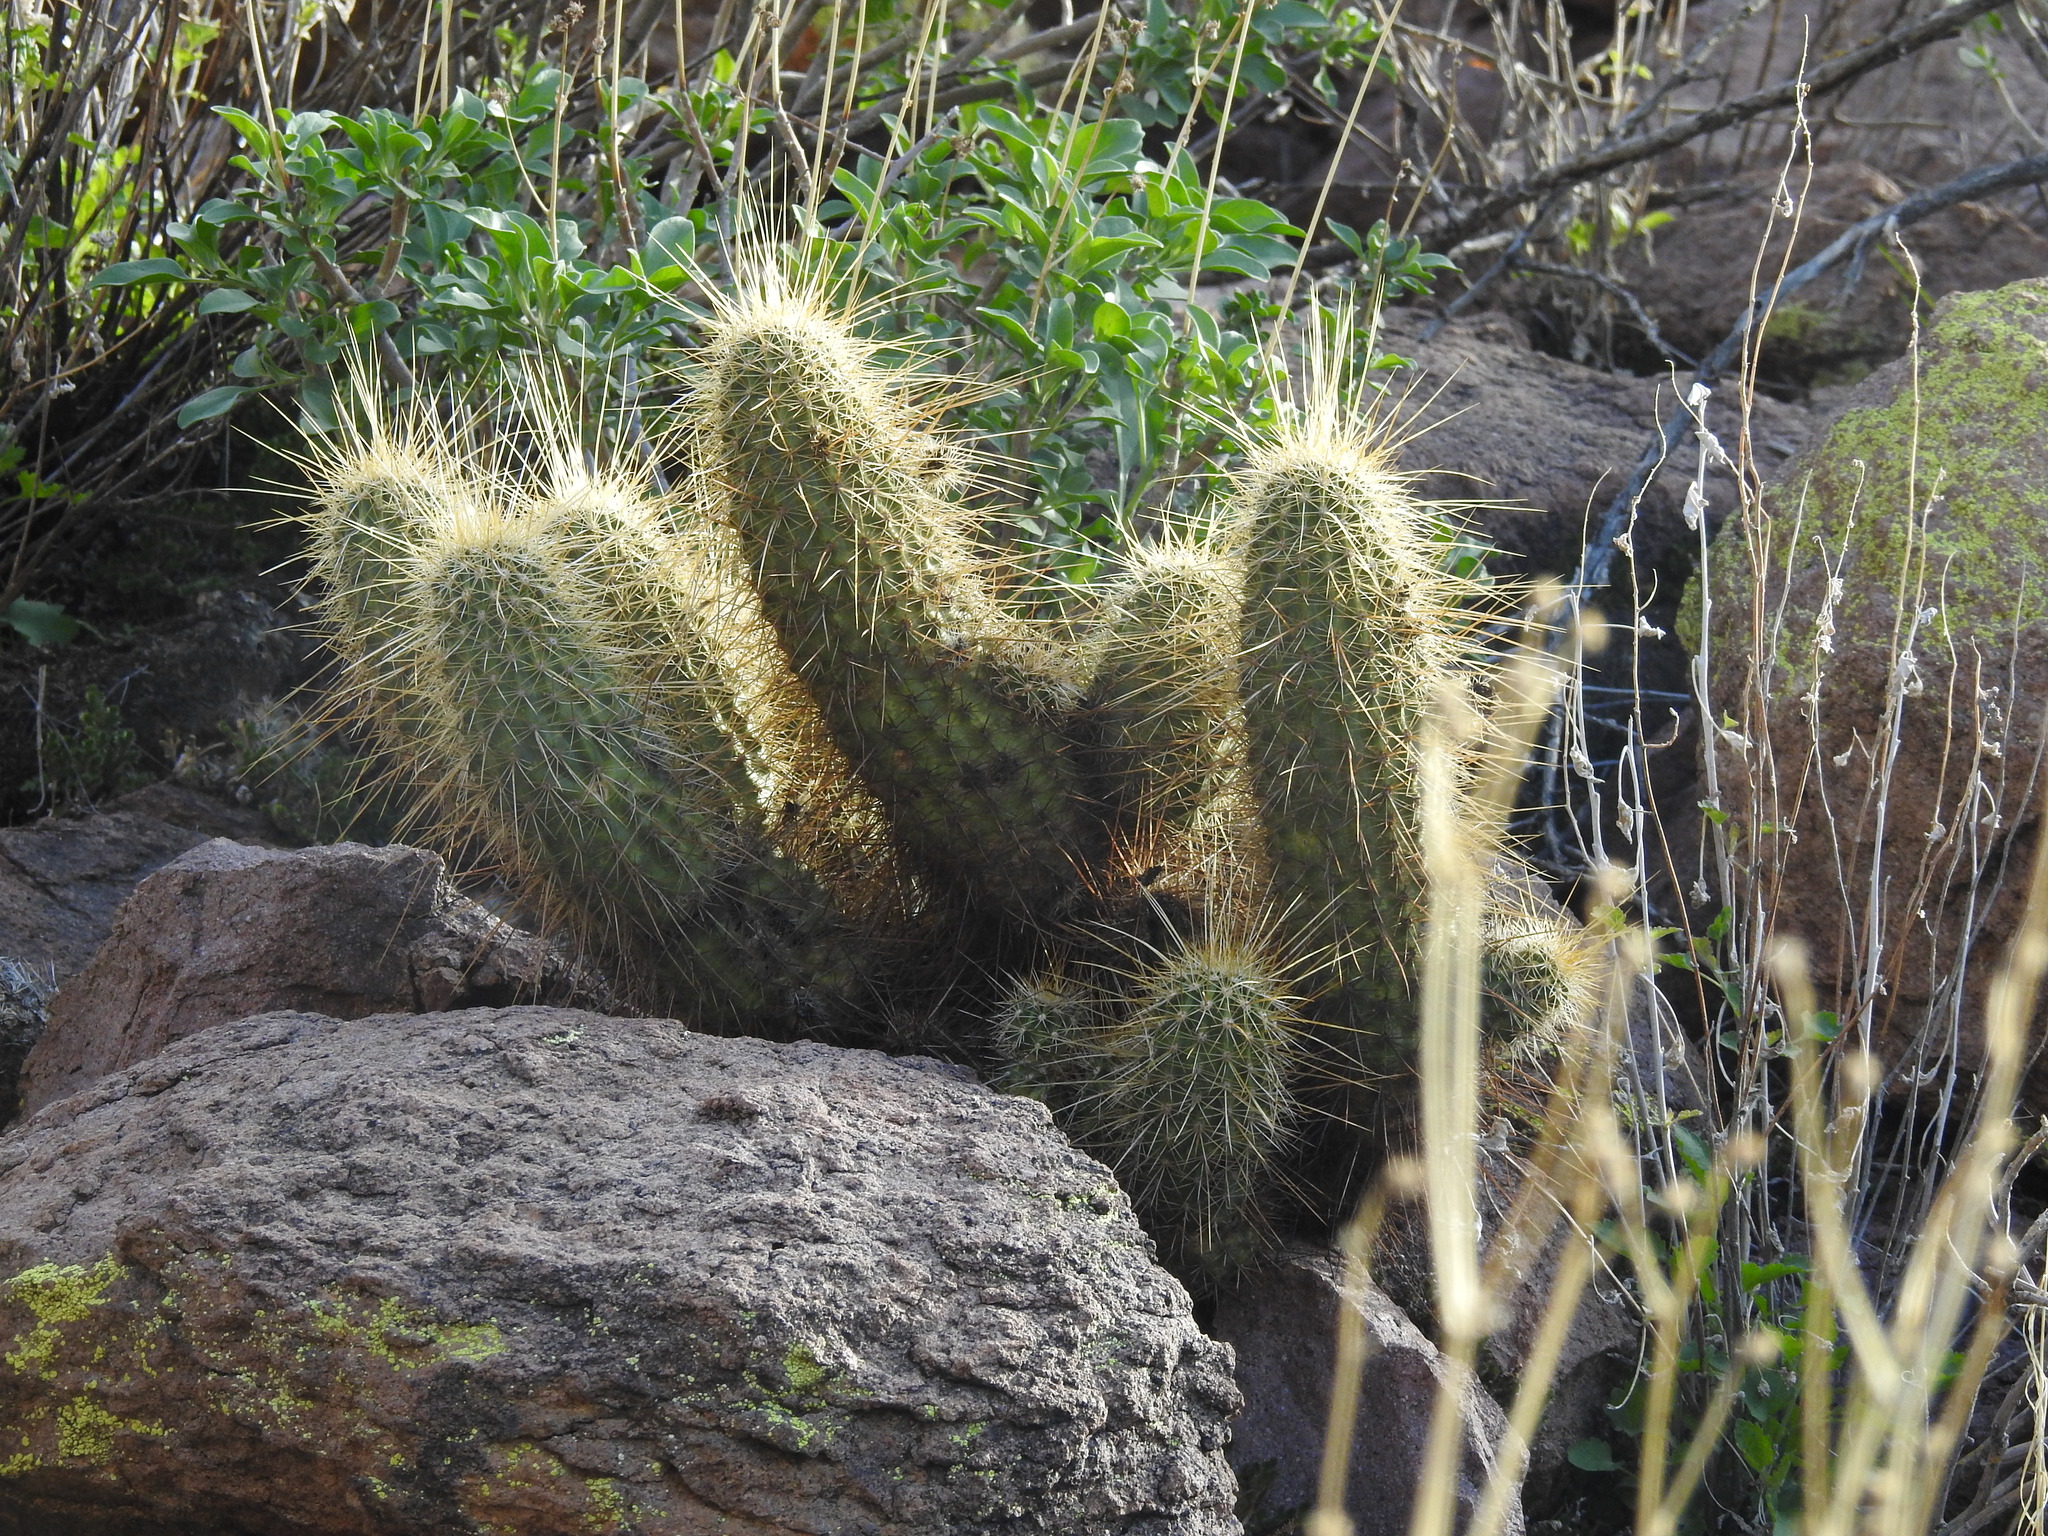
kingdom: Plantae
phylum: Tracheophyta
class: Magnoliopsida
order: Caryophyllales
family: Cactaceae
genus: Echinocereus
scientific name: Echinocereus bonkerae
